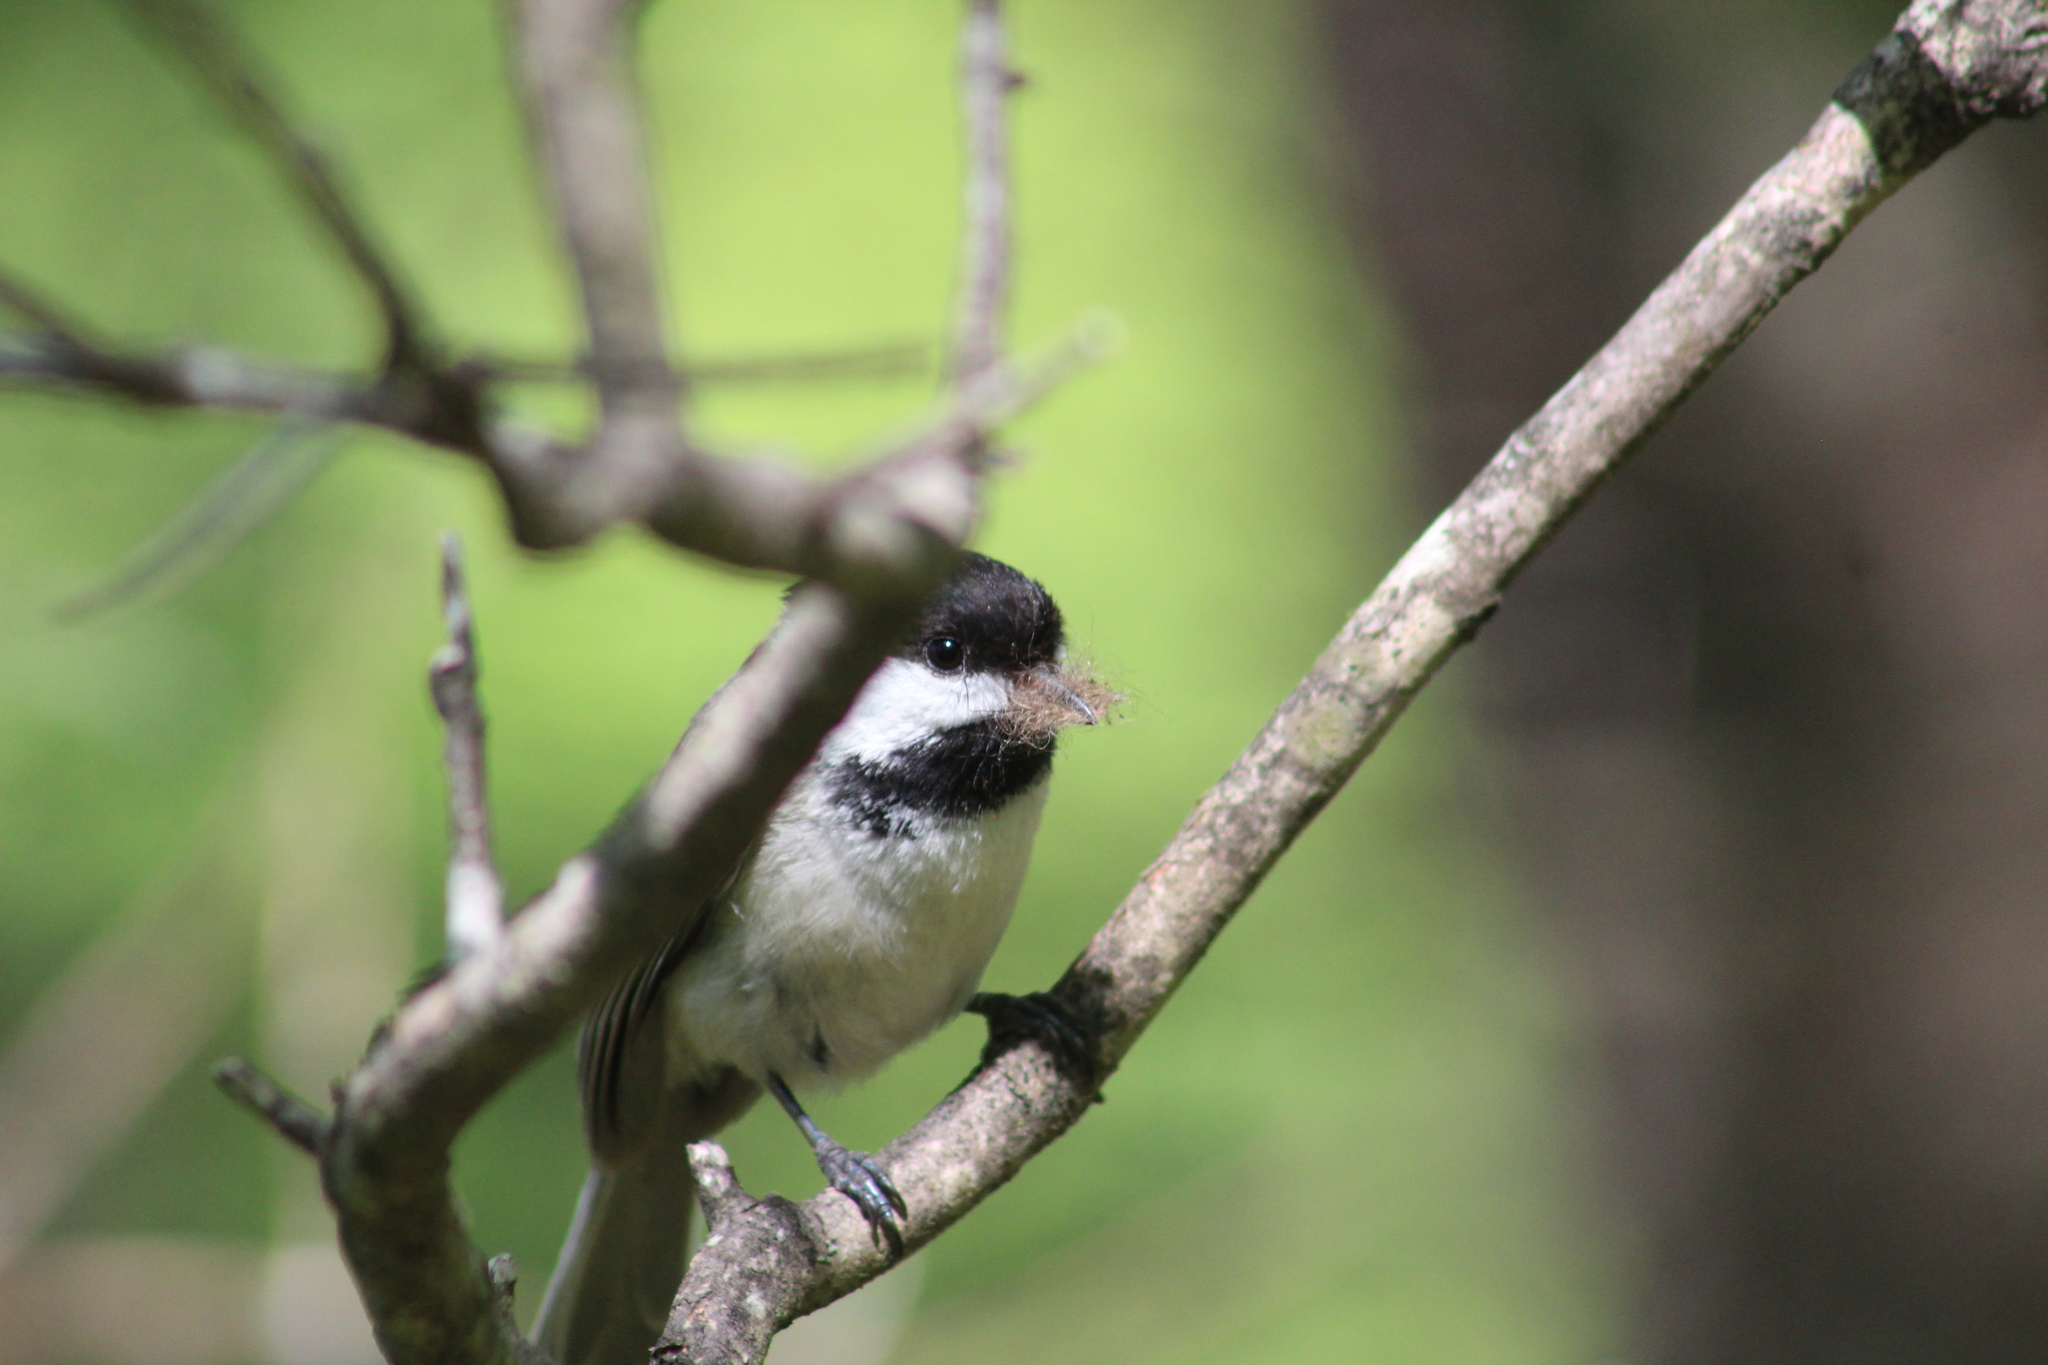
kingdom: Animalia
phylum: Chordata
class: Aves
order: Passeriformes
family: Paridae
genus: Poecile
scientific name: Poecile atricapillus
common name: Black-capped chickadee
